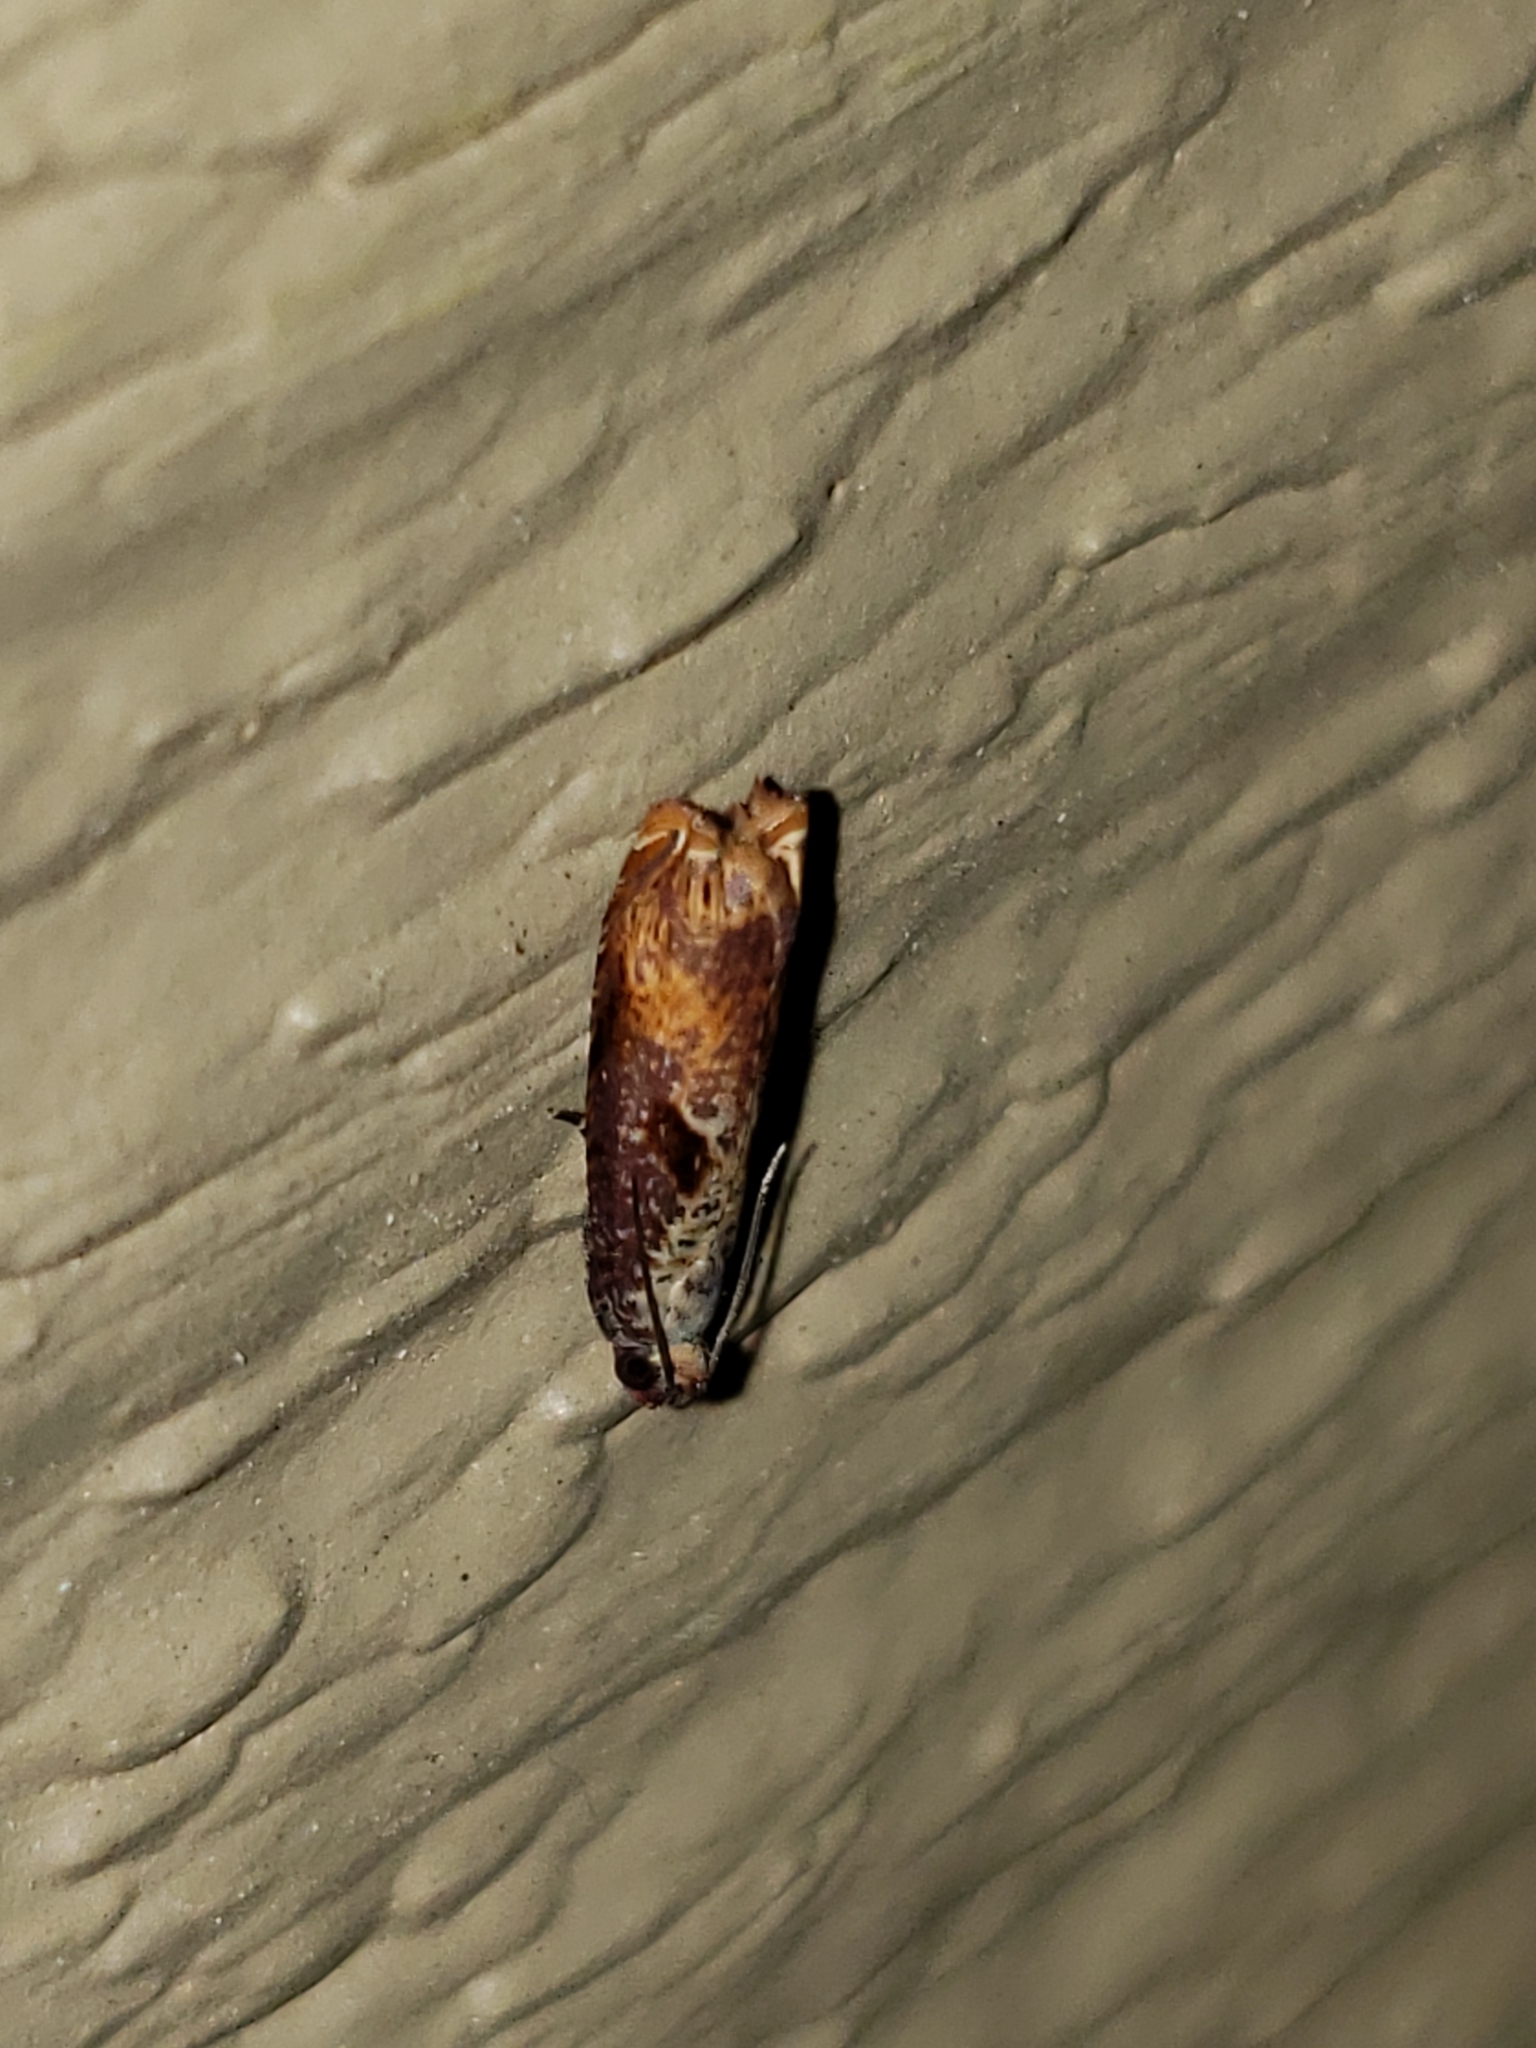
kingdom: Animalia
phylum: Arthropoda
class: Insecta
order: Lepidoptera
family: Tortricidae
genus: Episimus
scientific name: Episimus tyrius
